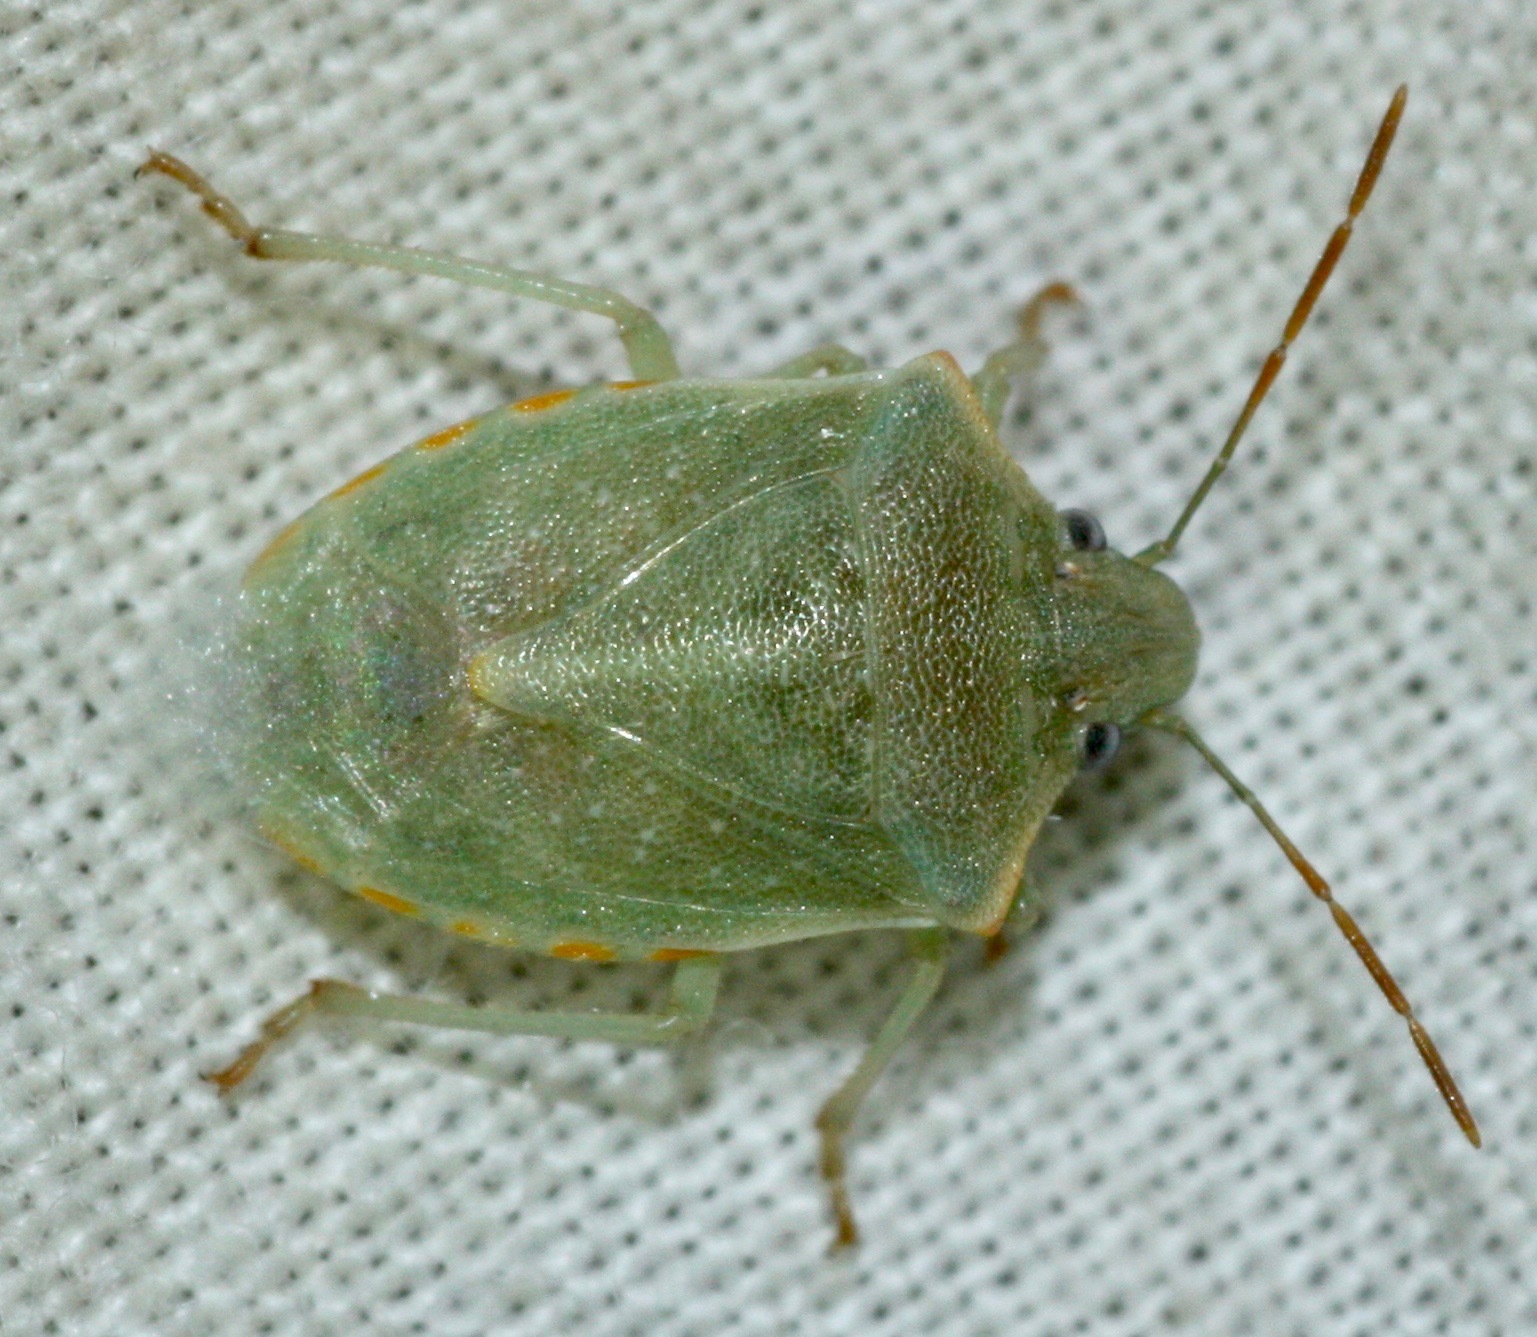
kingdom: Animalia
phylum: Arthropoda
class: Insecta
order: Hemiptera
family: Pentatomidae
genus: Thyanta
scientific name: Thyanta accerra
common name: Stink bug
